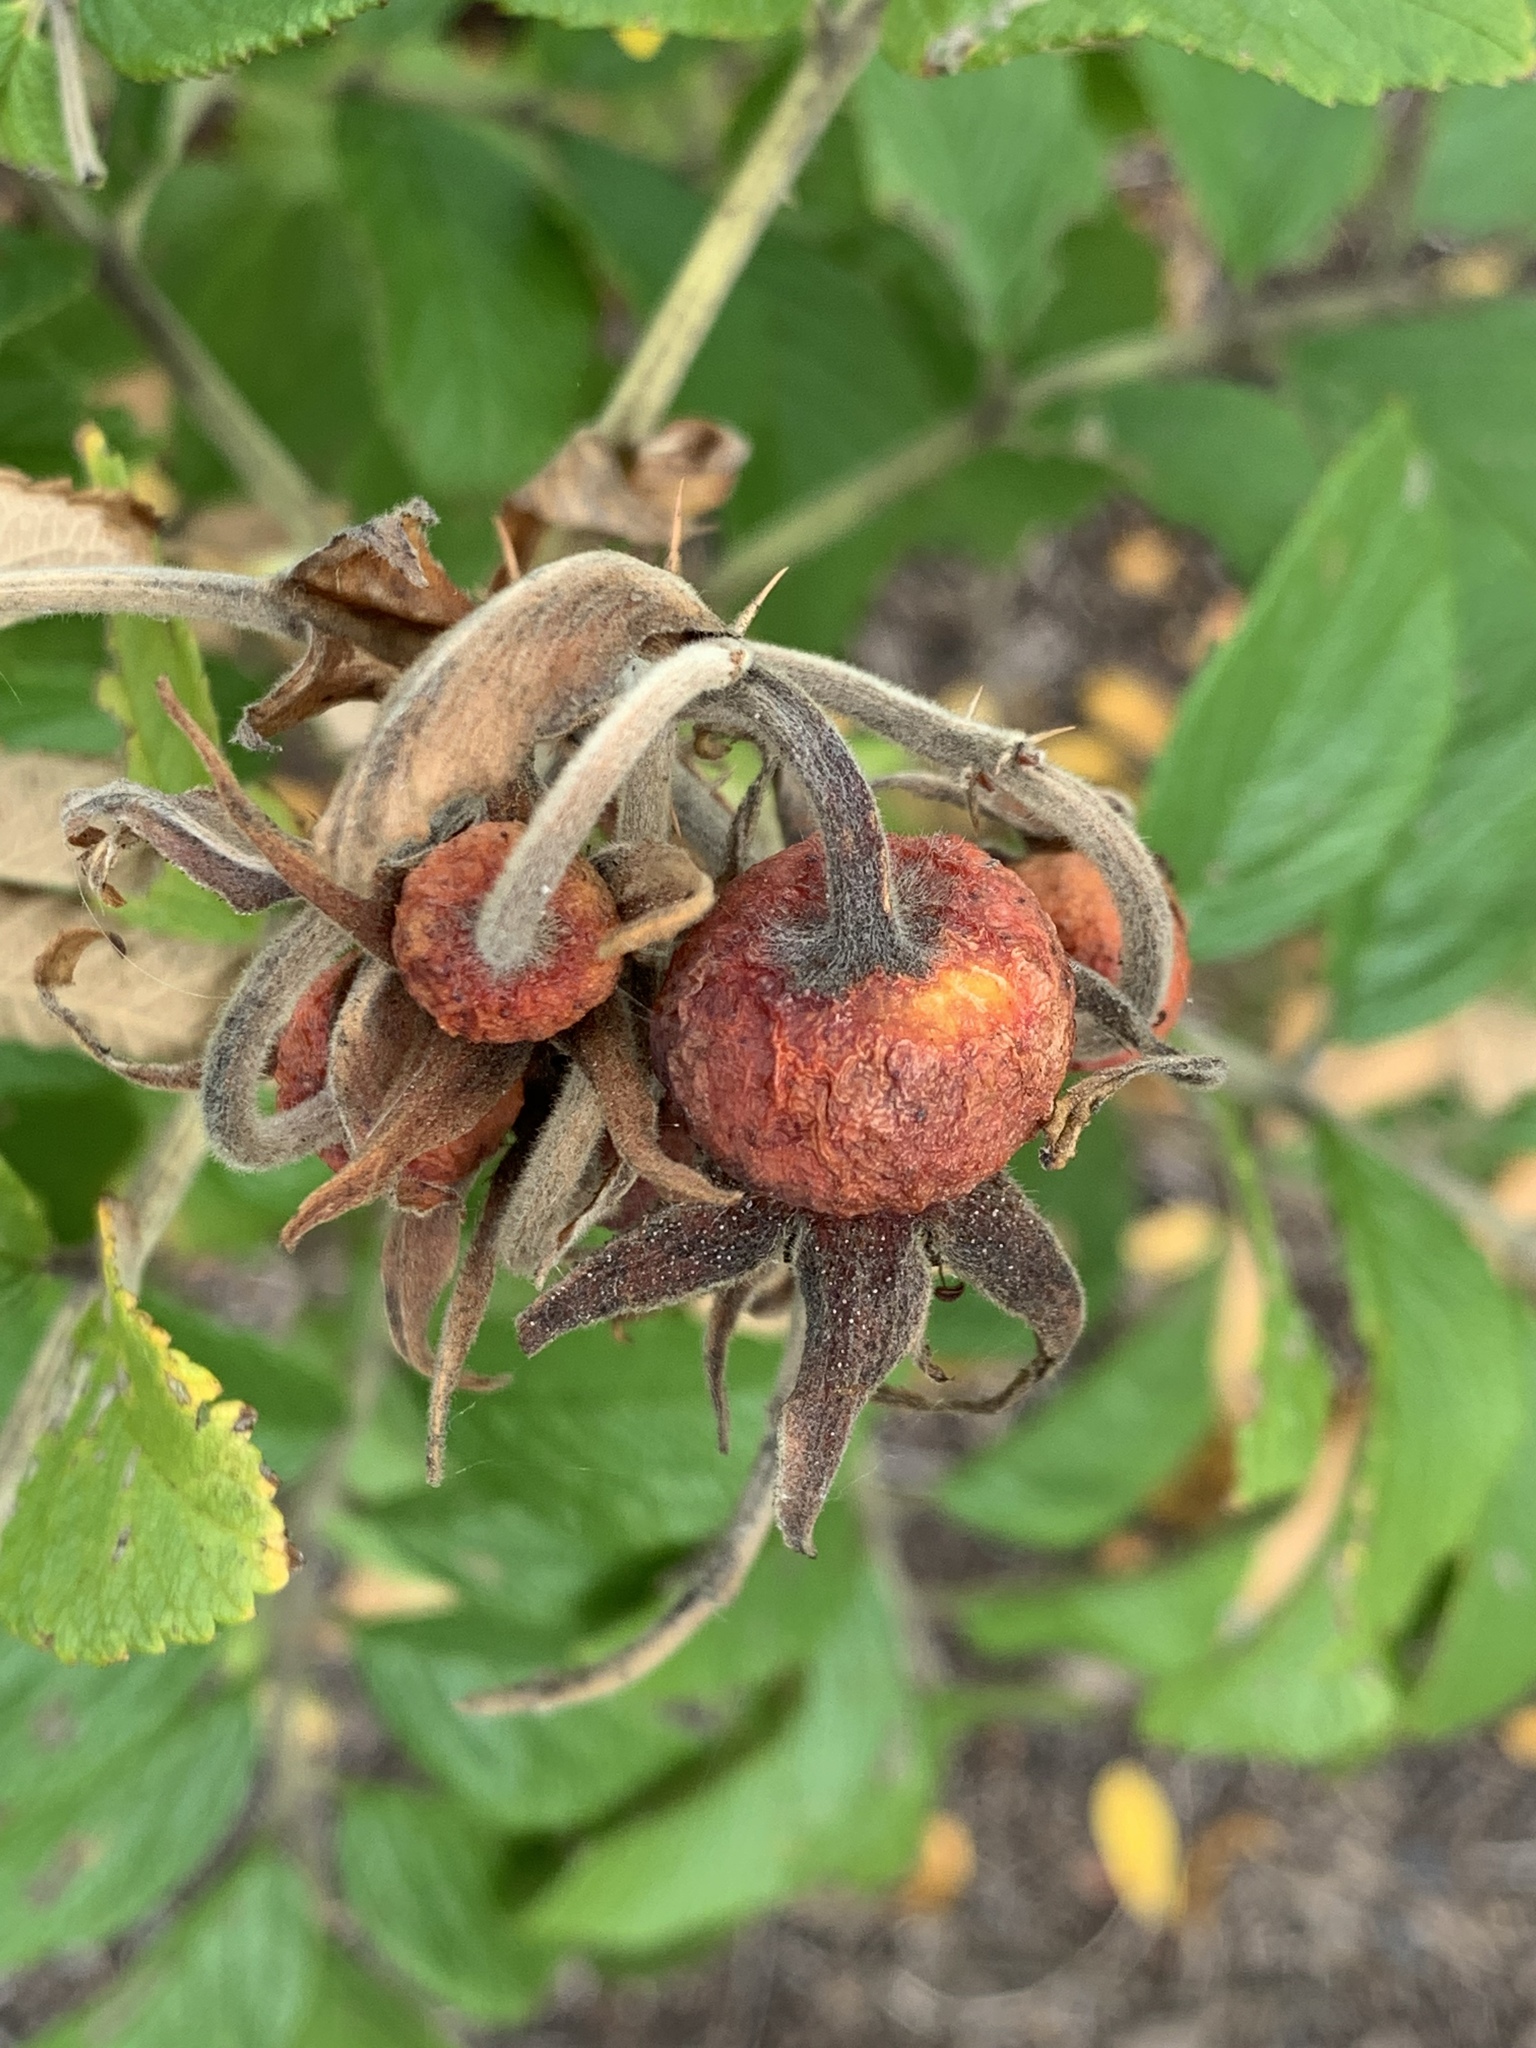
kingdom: Plantae
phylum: Tracheophyta
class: Magnoliopsida
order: Rosales
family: Rosaceae
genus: Rosa
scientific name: Rosa rugosa
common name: Japanese rose
